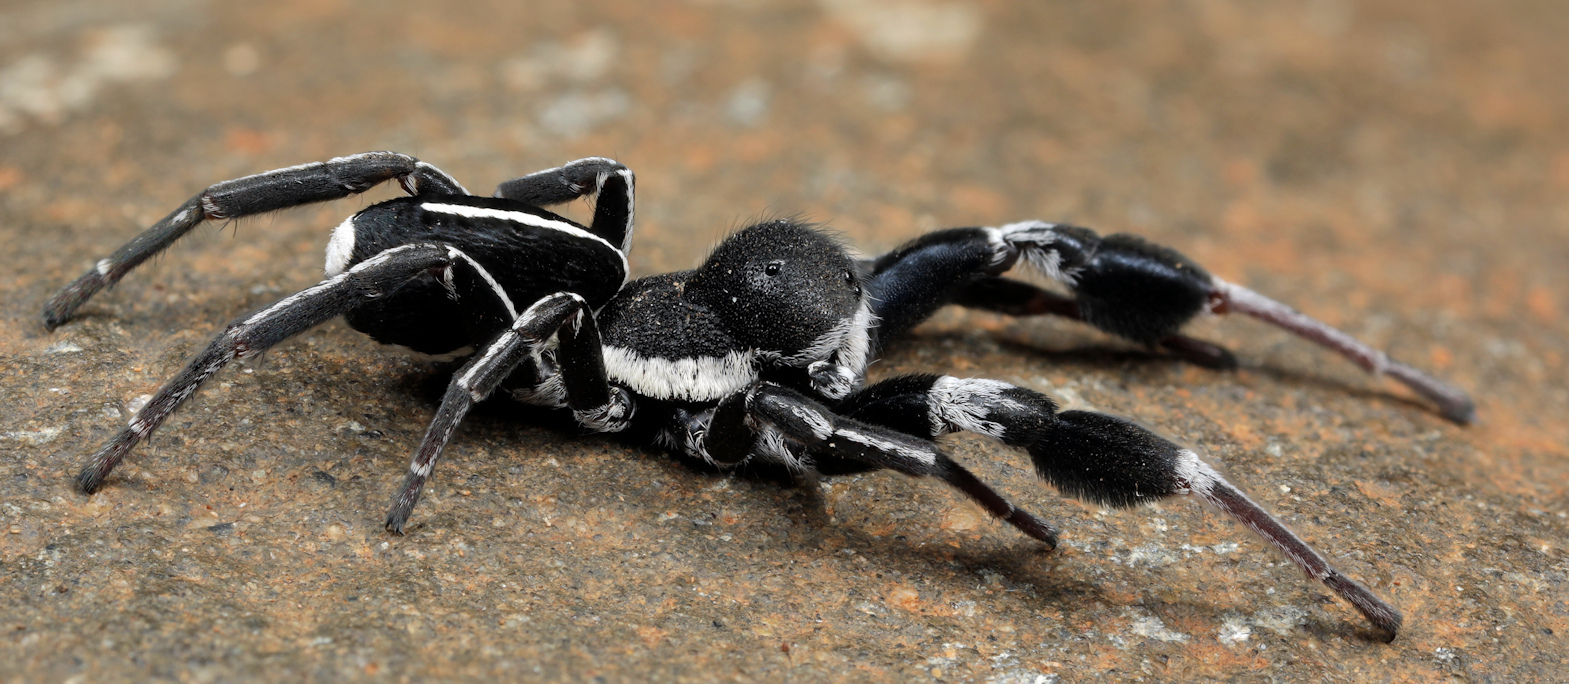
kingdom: Animalia
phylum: Arthropoda
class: Arachnida
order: Araneae
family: Eresidae
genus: Stegodyphus
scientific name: Stegodyphus africanus
